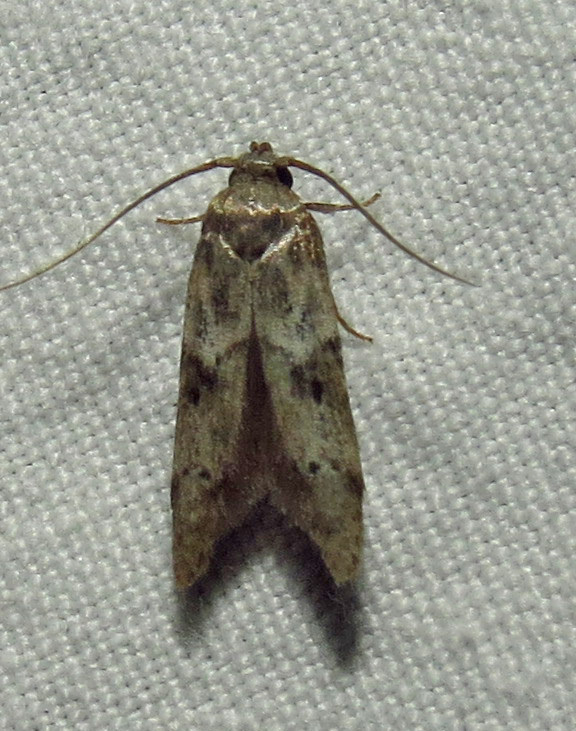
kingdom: Animalia
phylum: Arthropoda
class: Insecta
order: Lepidoptera
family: Blastobasidae
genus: Blastobasis
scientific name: Blastobasis glandulella
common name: Acorn moth
